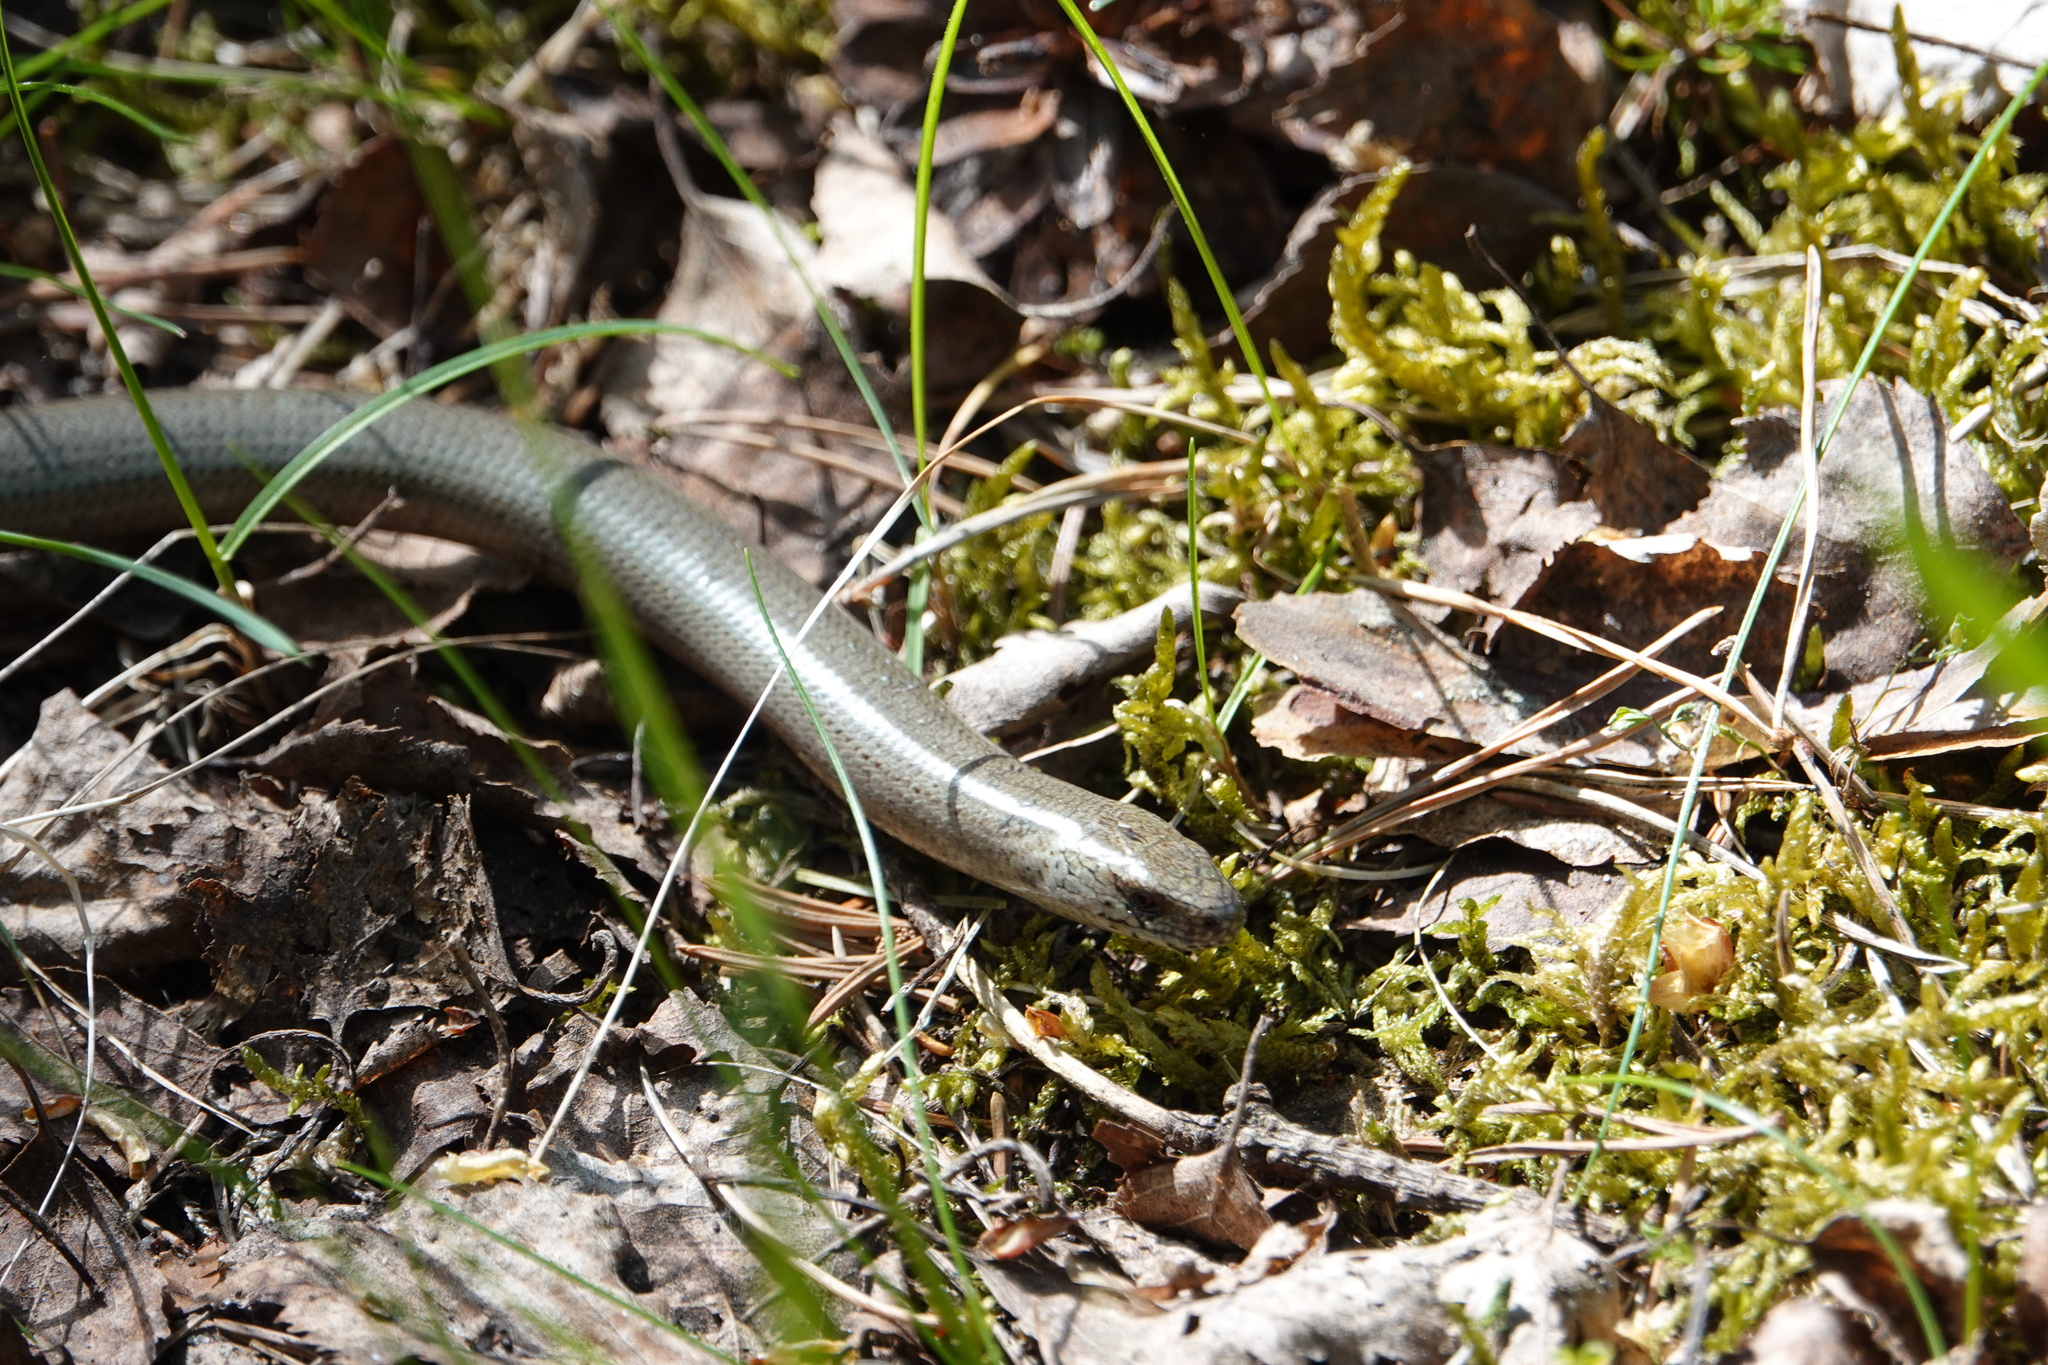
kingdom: Animalia
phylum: Chordata
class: Squamata
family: Anguidae
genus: Anguis
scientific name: Anguis fragilis
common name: Slow worm
